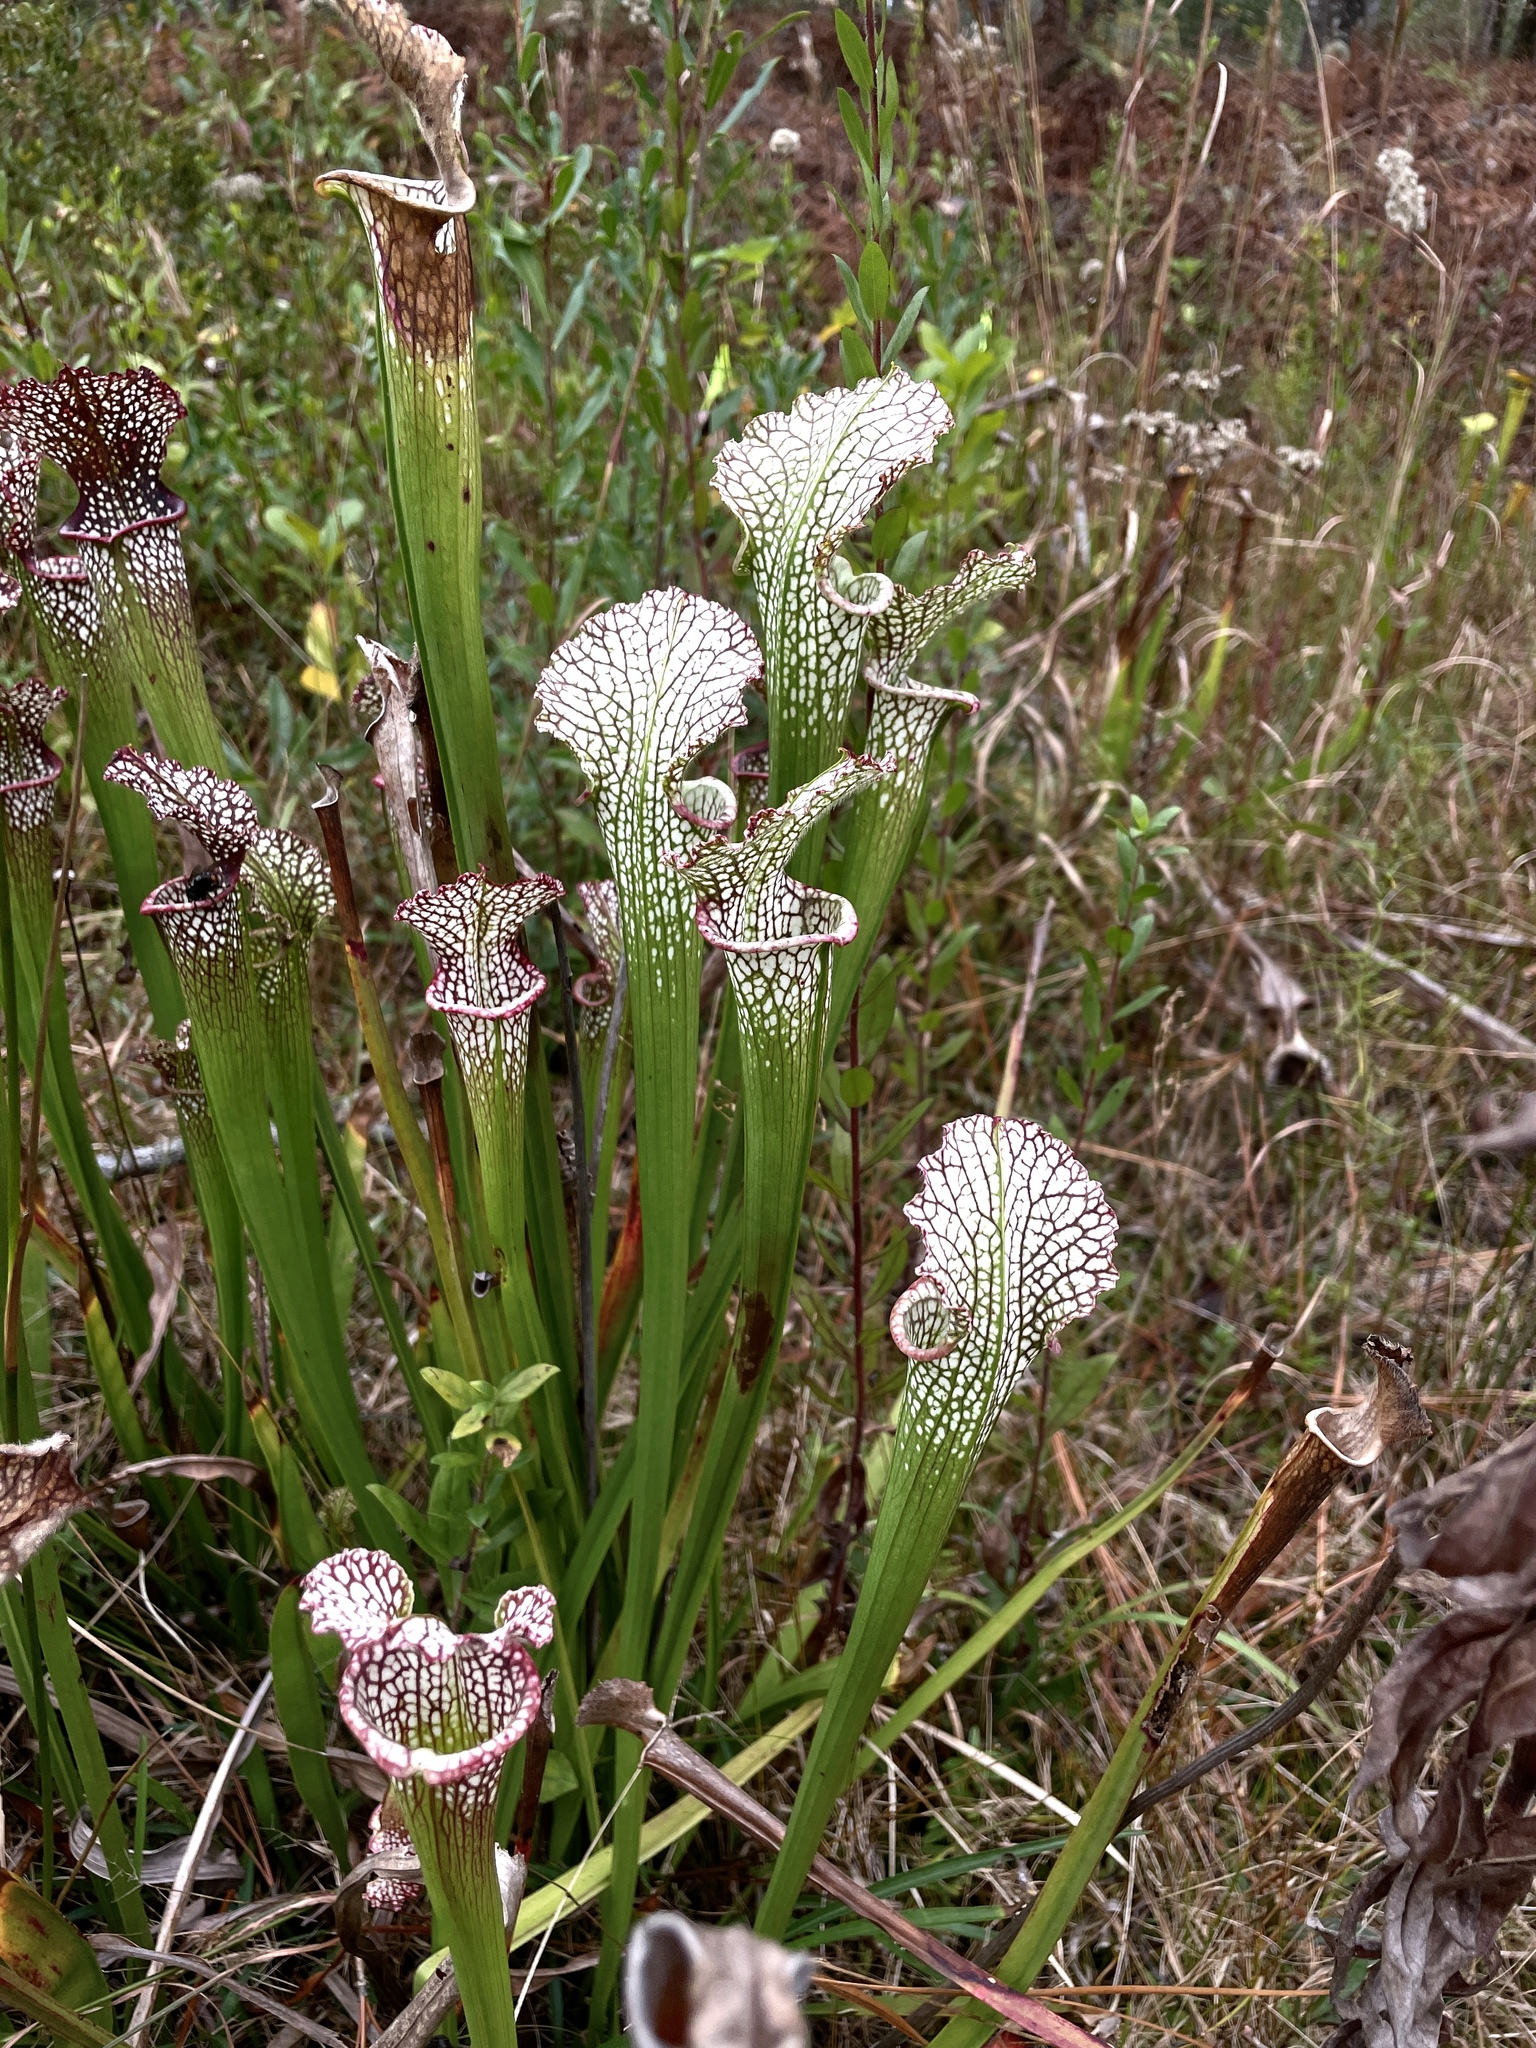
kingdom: Plantae
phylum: Tracheophyta
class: Magnoliopsida
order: Ericales
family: Sarraceniaceae
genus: Sarracenia
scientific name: Sarracenia leucophylla
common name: Purple trumpetleaf
